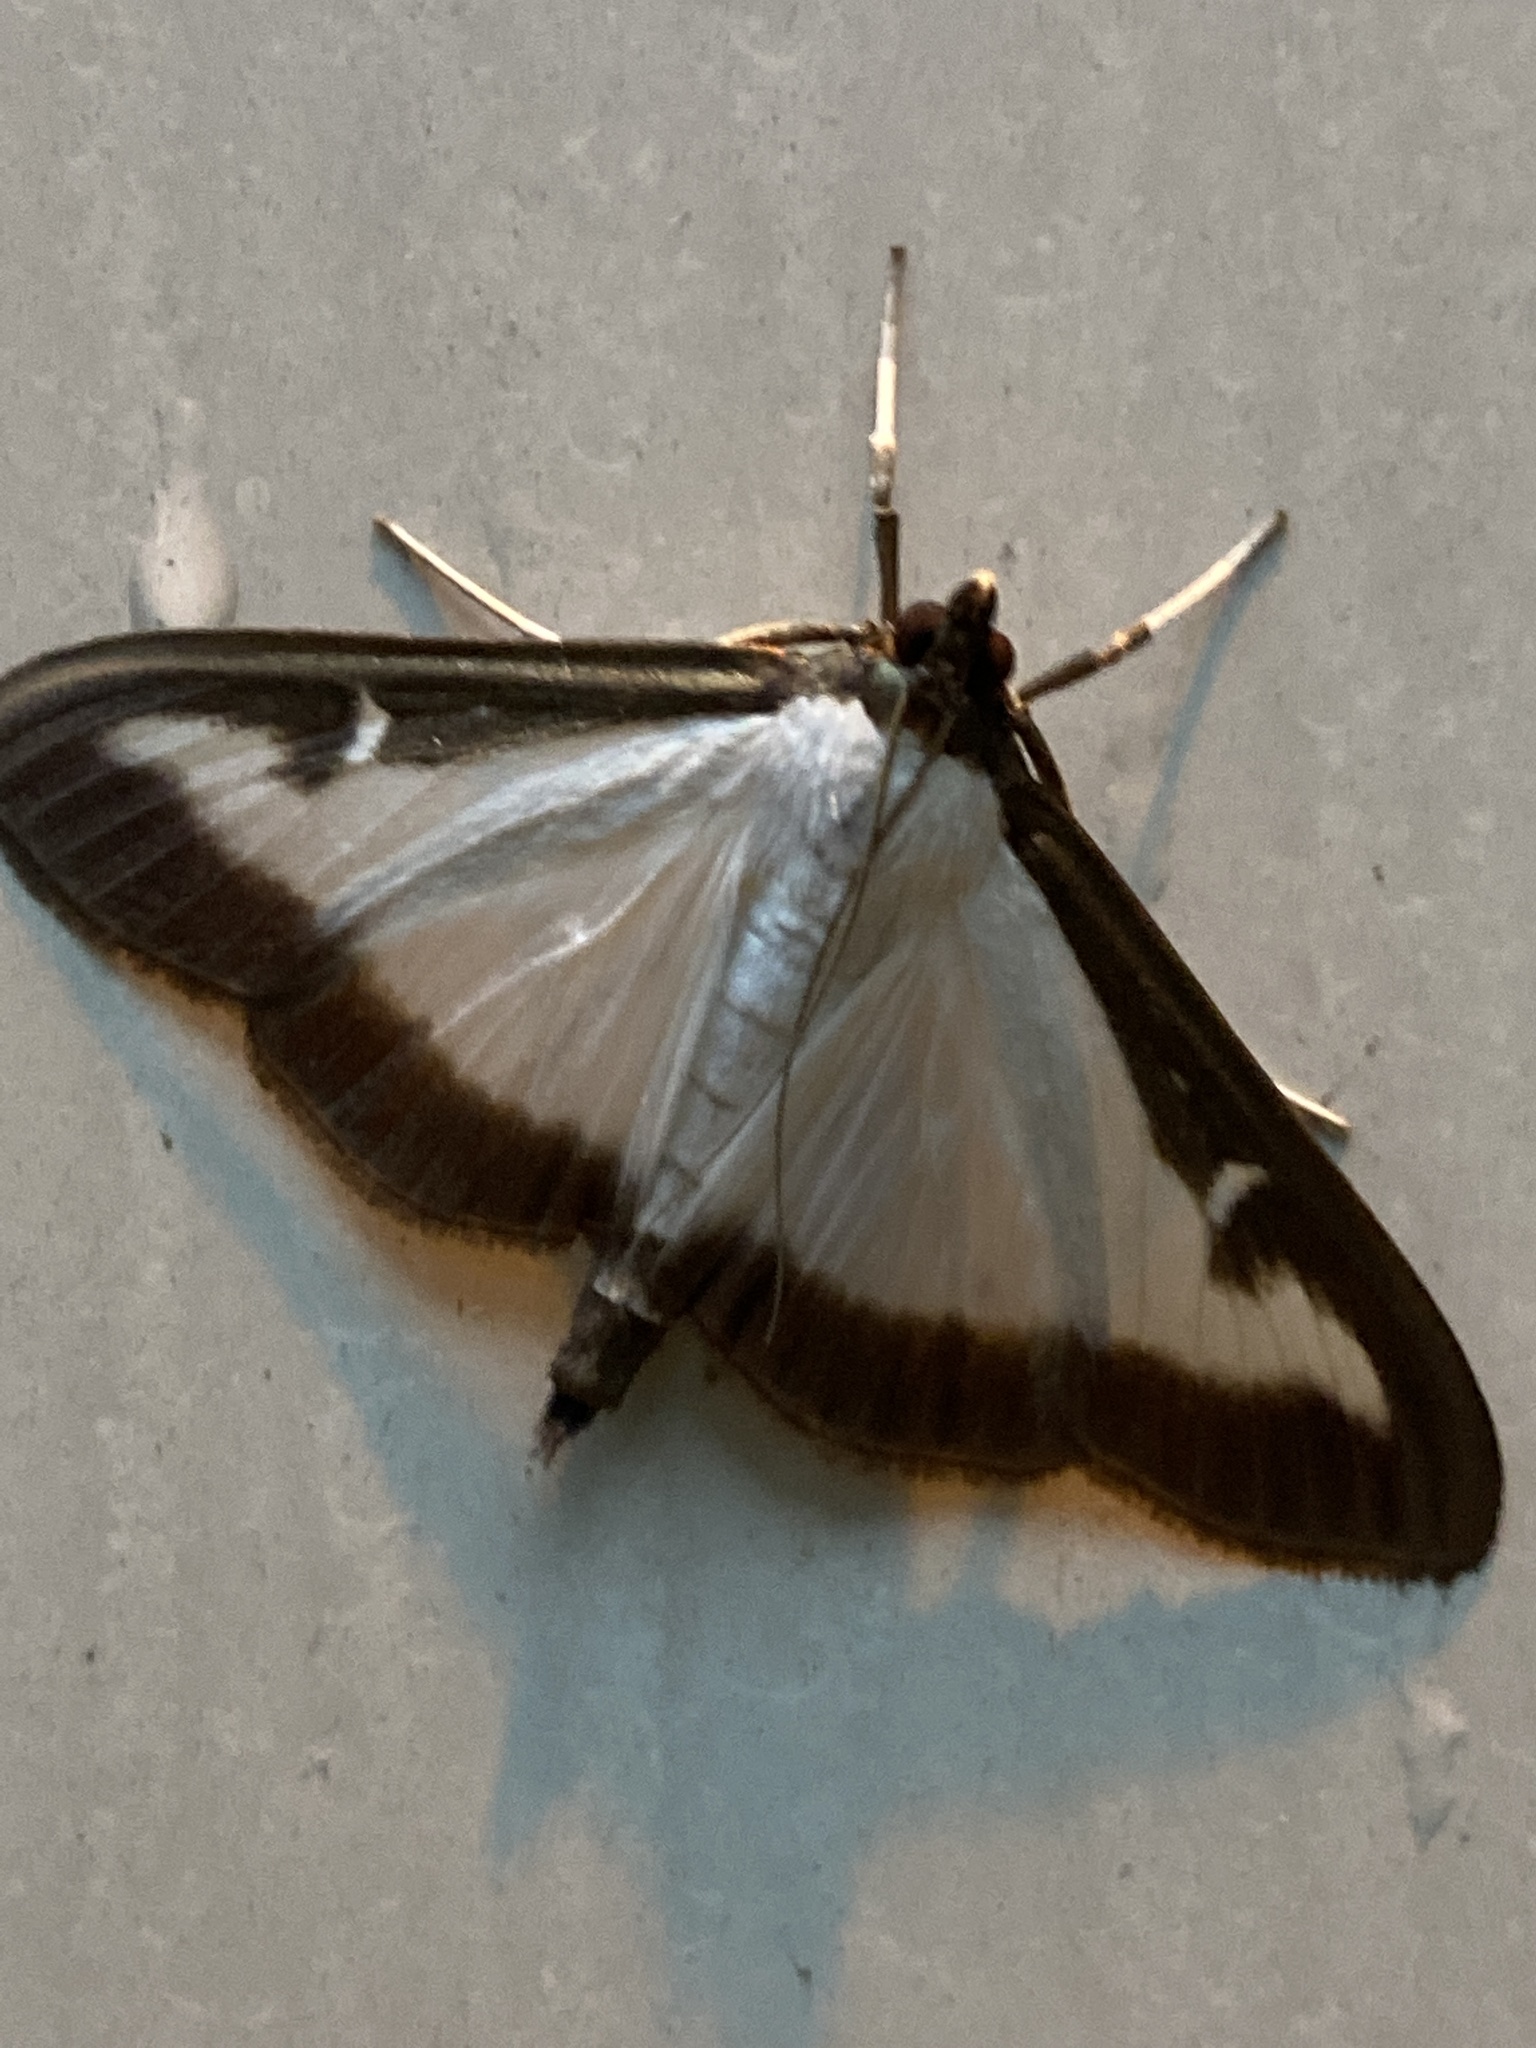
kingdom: Animalia
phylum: Arthropoda
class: Insecta
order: Lepidoptera
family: Crambidae
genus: Cydalima
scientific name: Cydalima perspectalis
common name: Box tree moth
